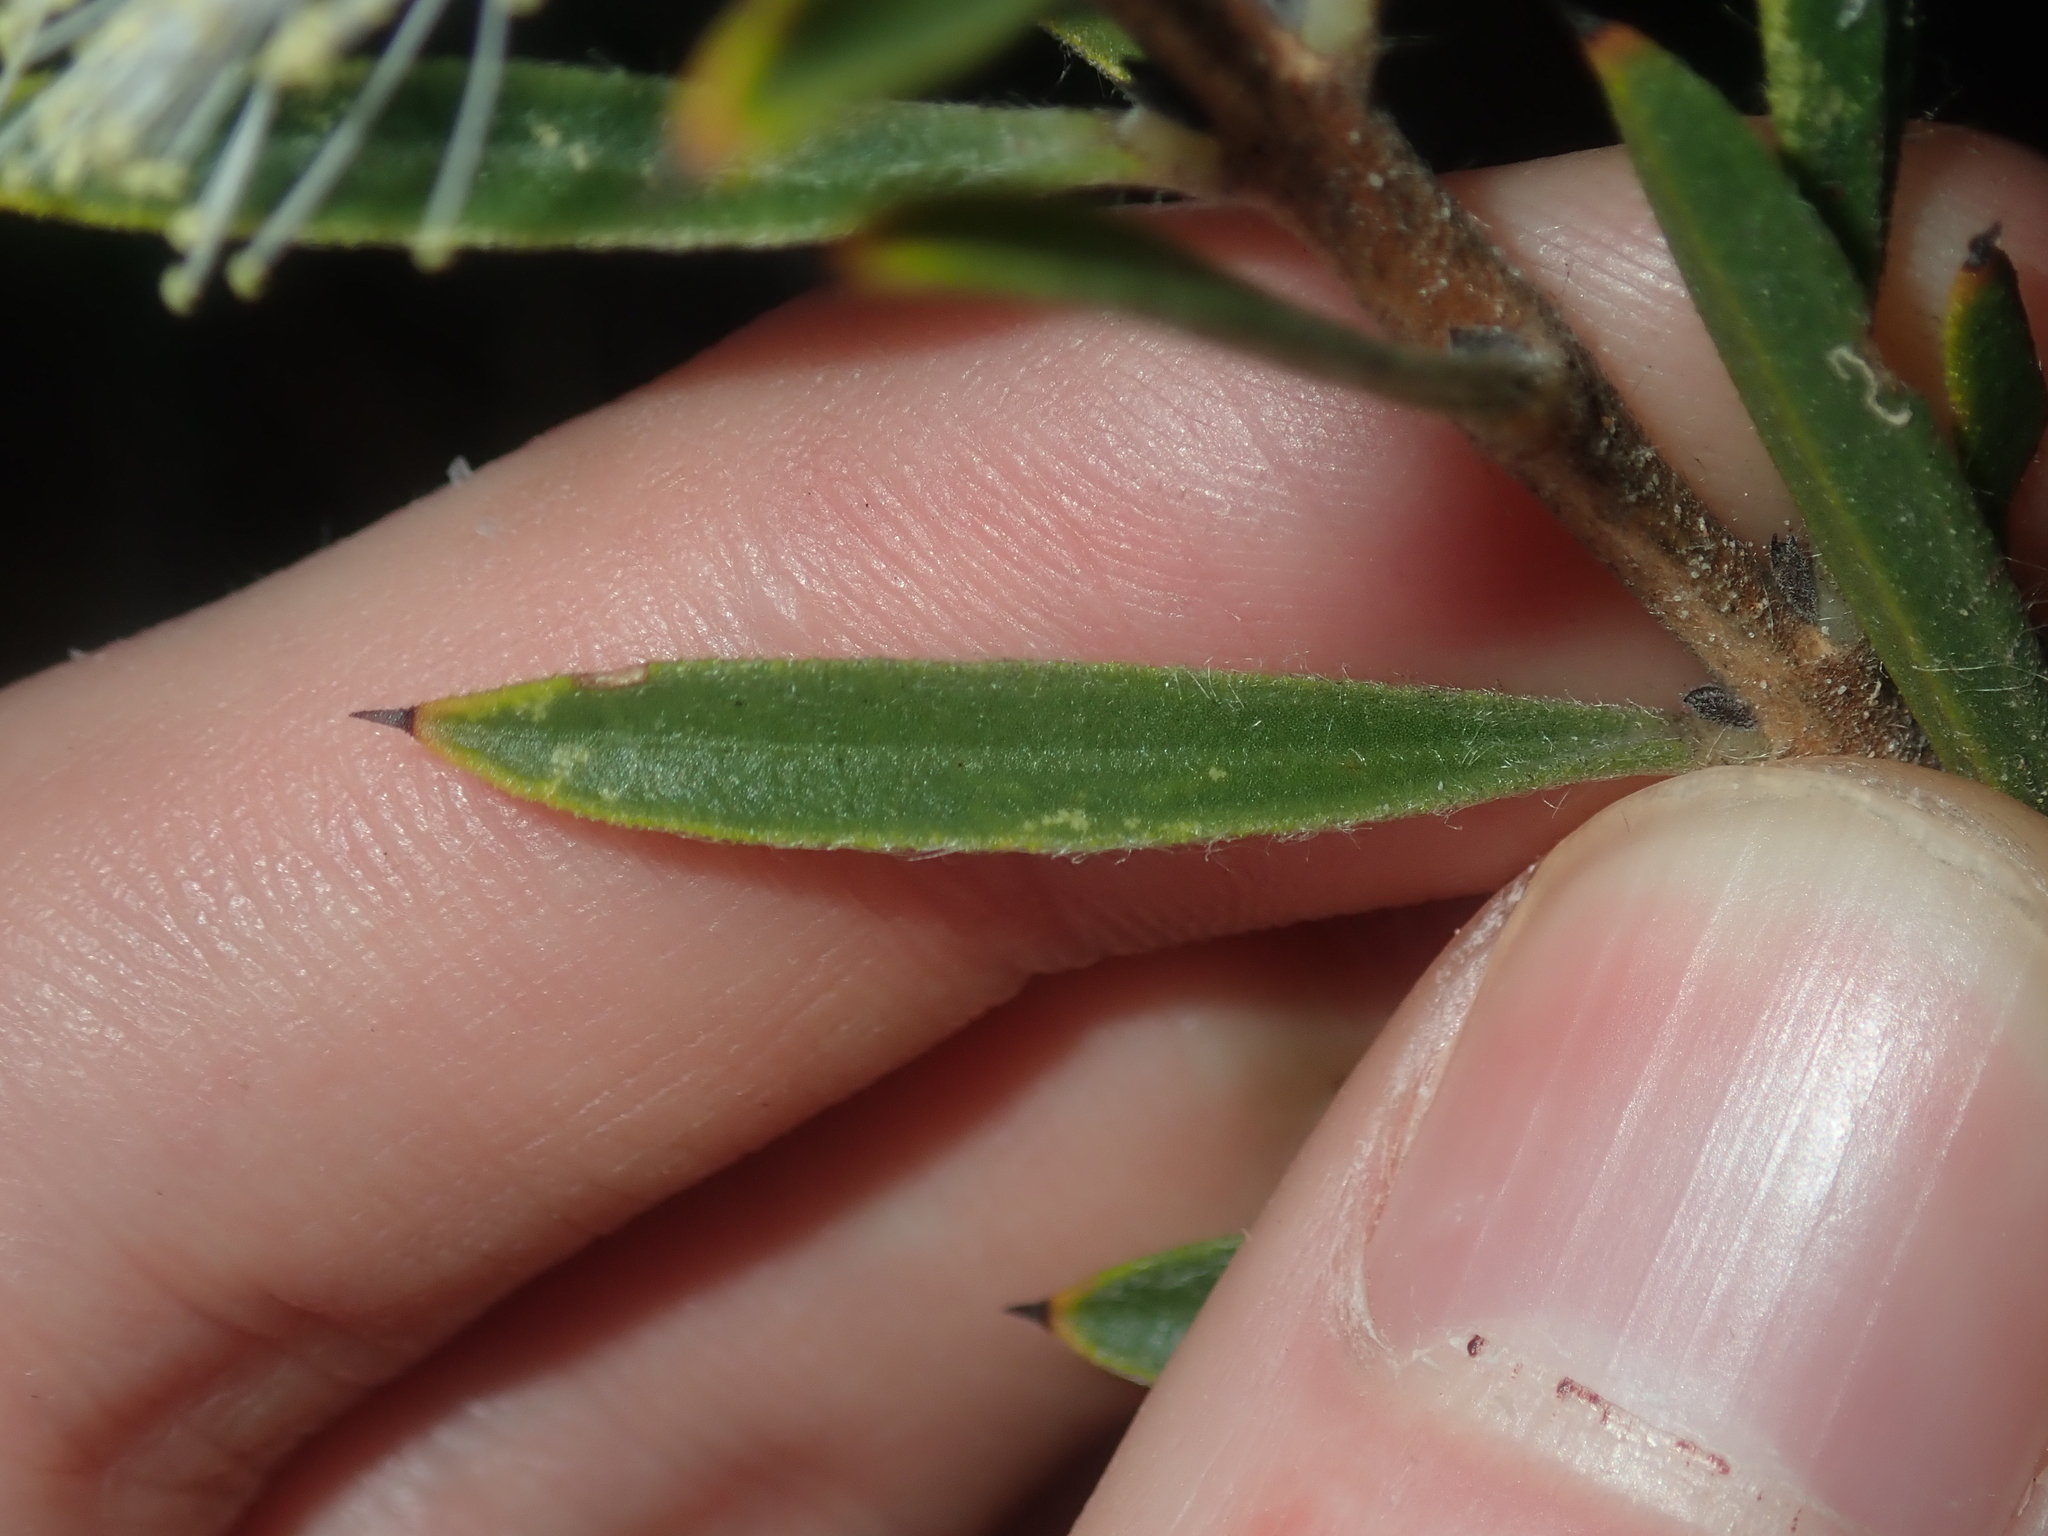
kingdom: Plantae
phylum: Tracheophyta
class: Magnoliopsida
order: Myrtales
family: Myrtaceae
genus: Melaleuca
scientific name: Melaleuca cowleyae
